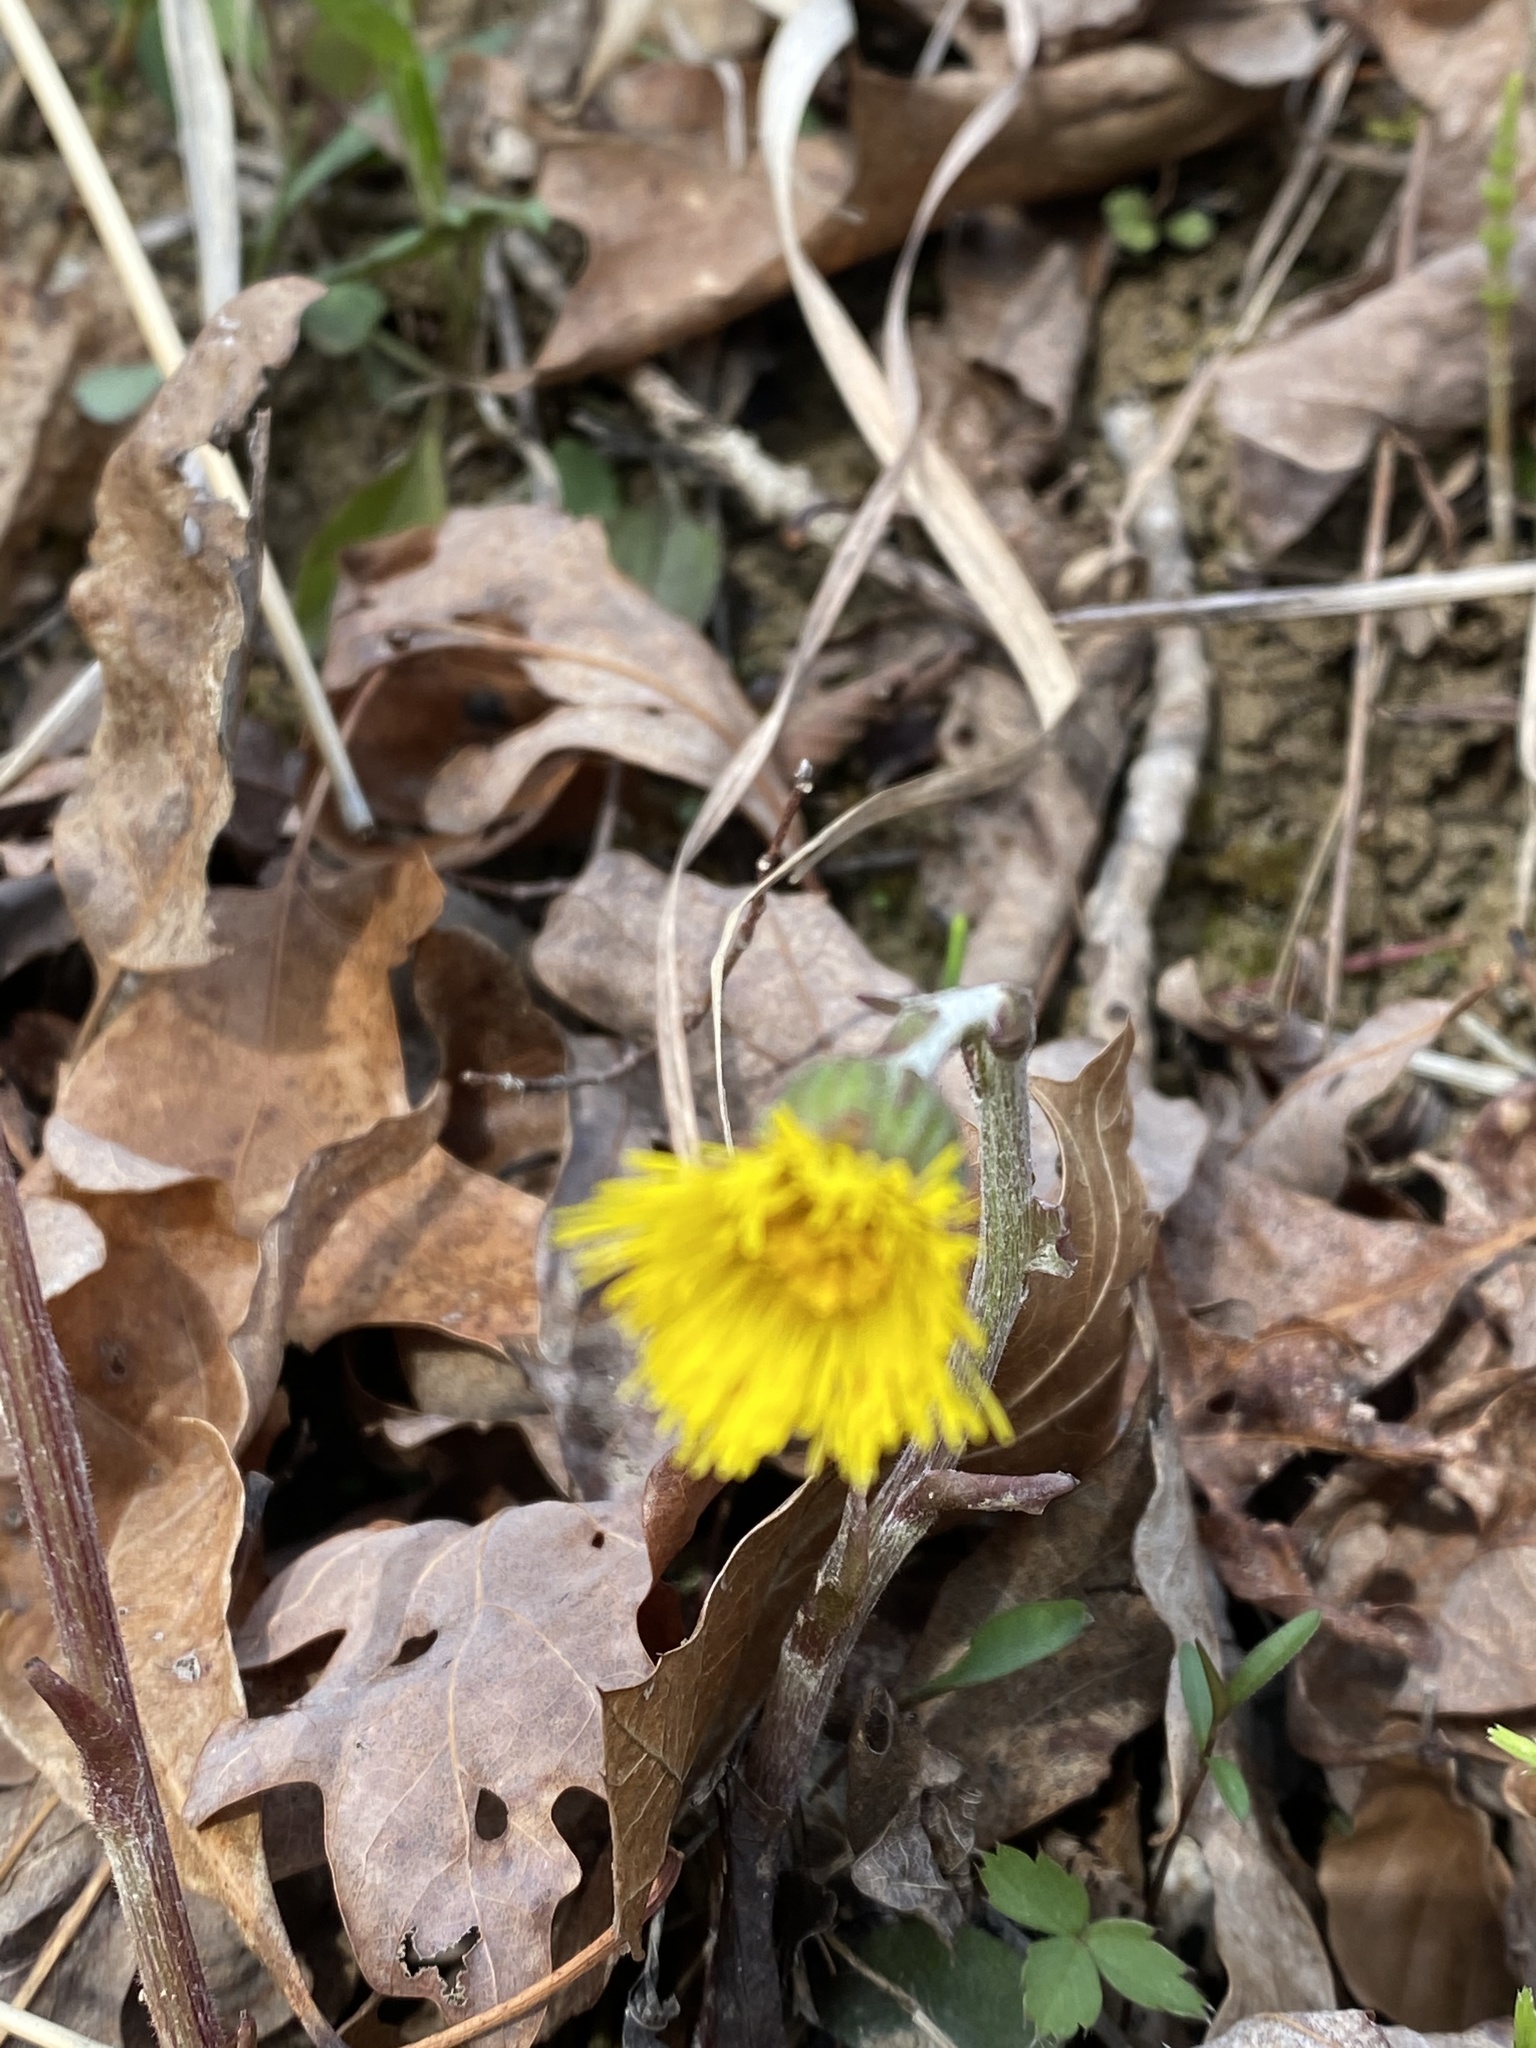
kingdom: Plantae
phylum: Tracheophyta
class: Magnoliopsida
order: Asterales
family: Asteraceae
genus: Tussilago
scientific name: Tussilago farfara
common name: Coltsfoot
